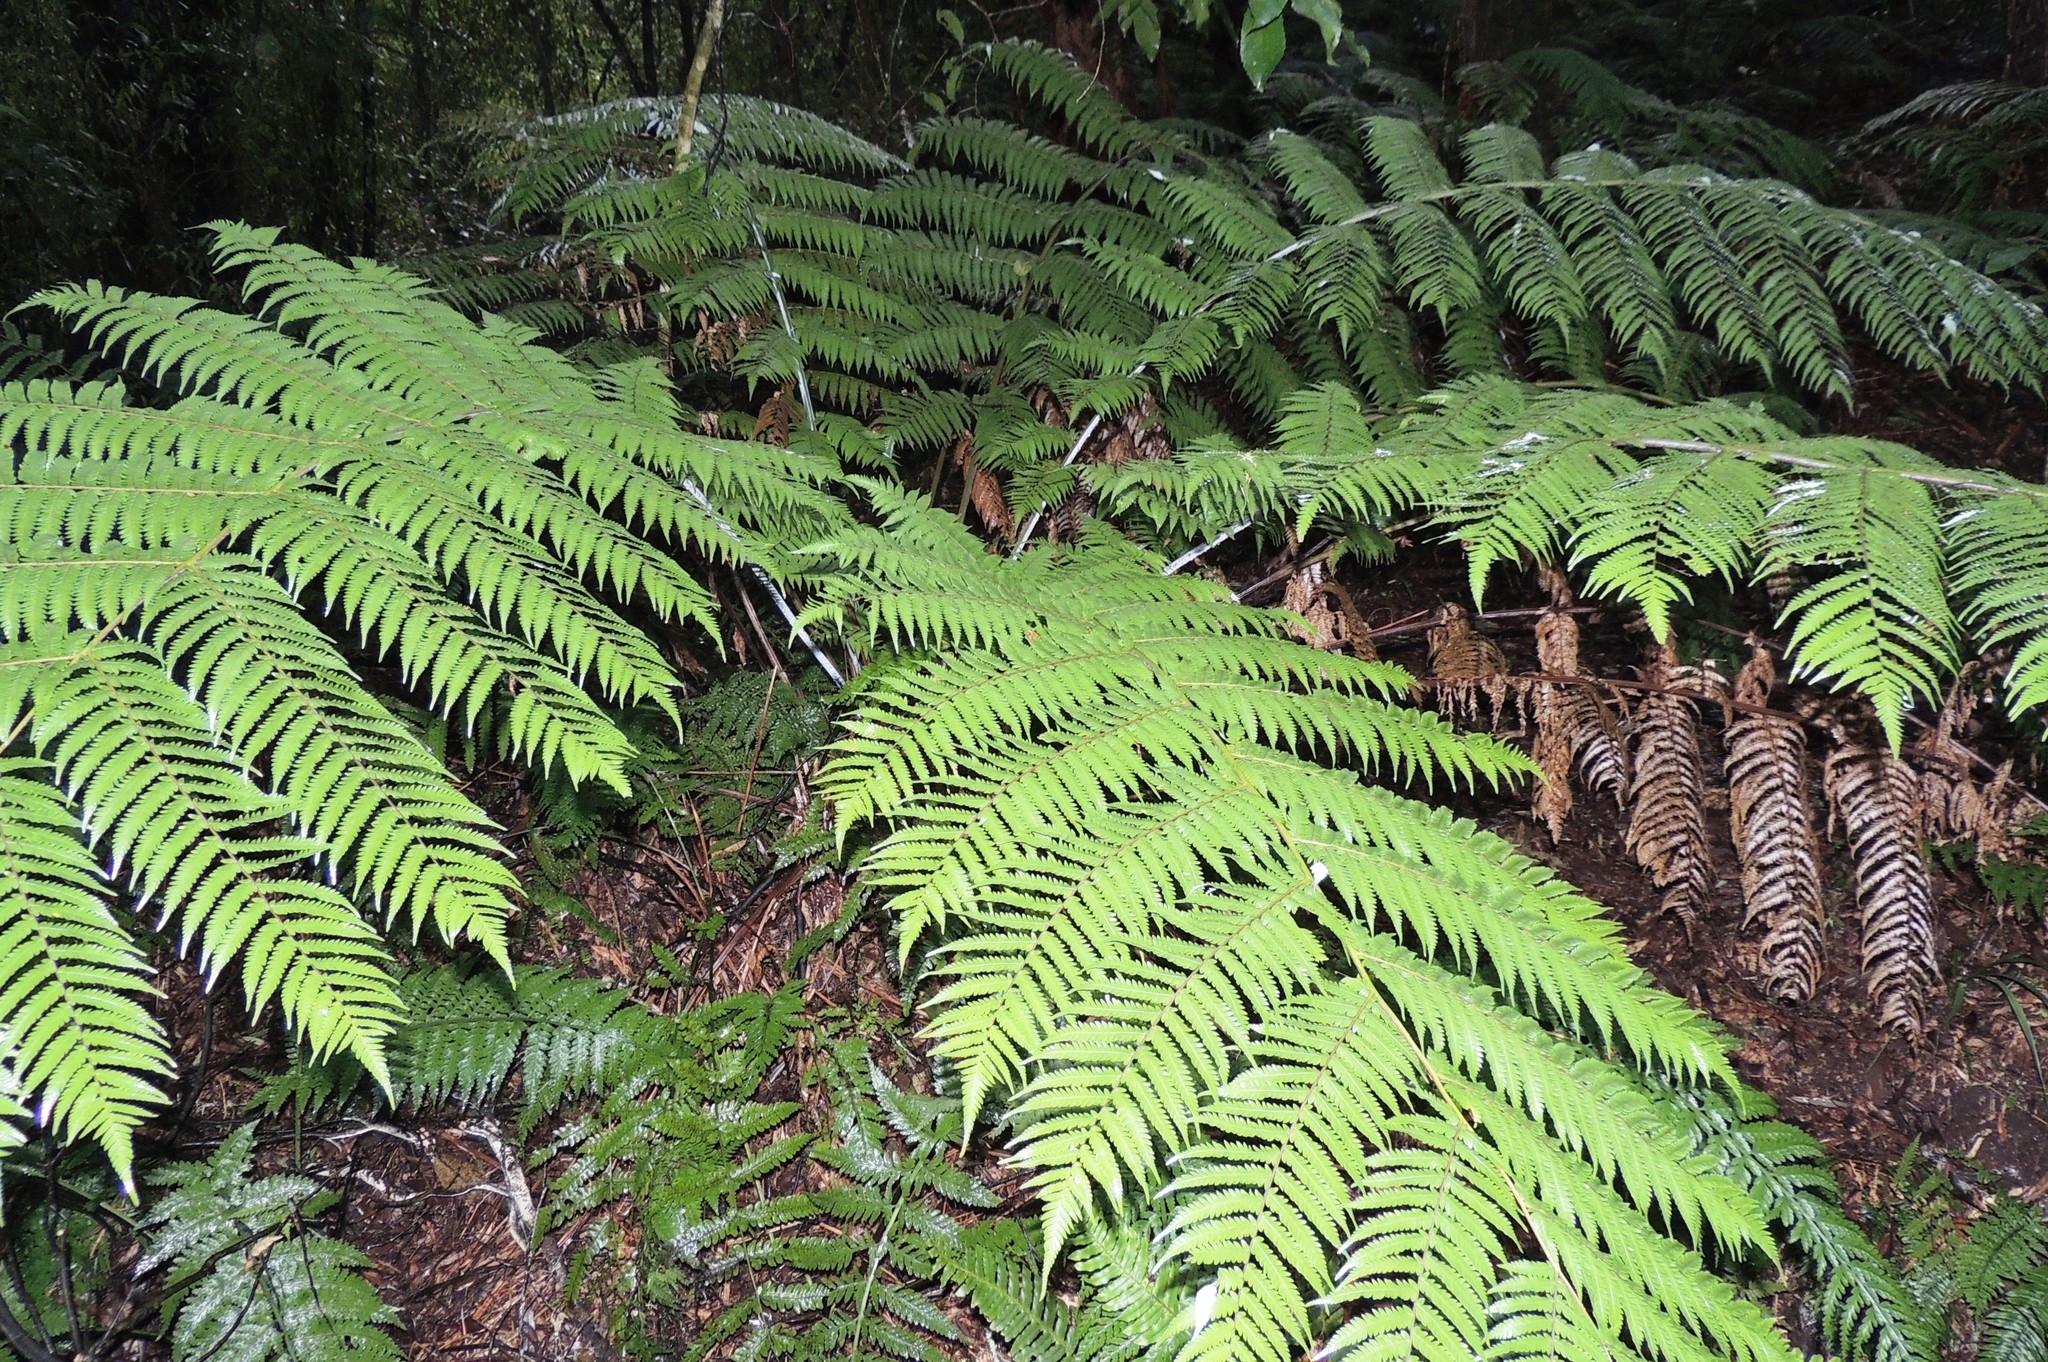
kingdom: Plantae
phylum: Tracheophyta
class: Polypodiopsida
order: Cyatheales
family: Cyatheaceae
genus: Alsophila
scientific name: Alsophila dealbata
